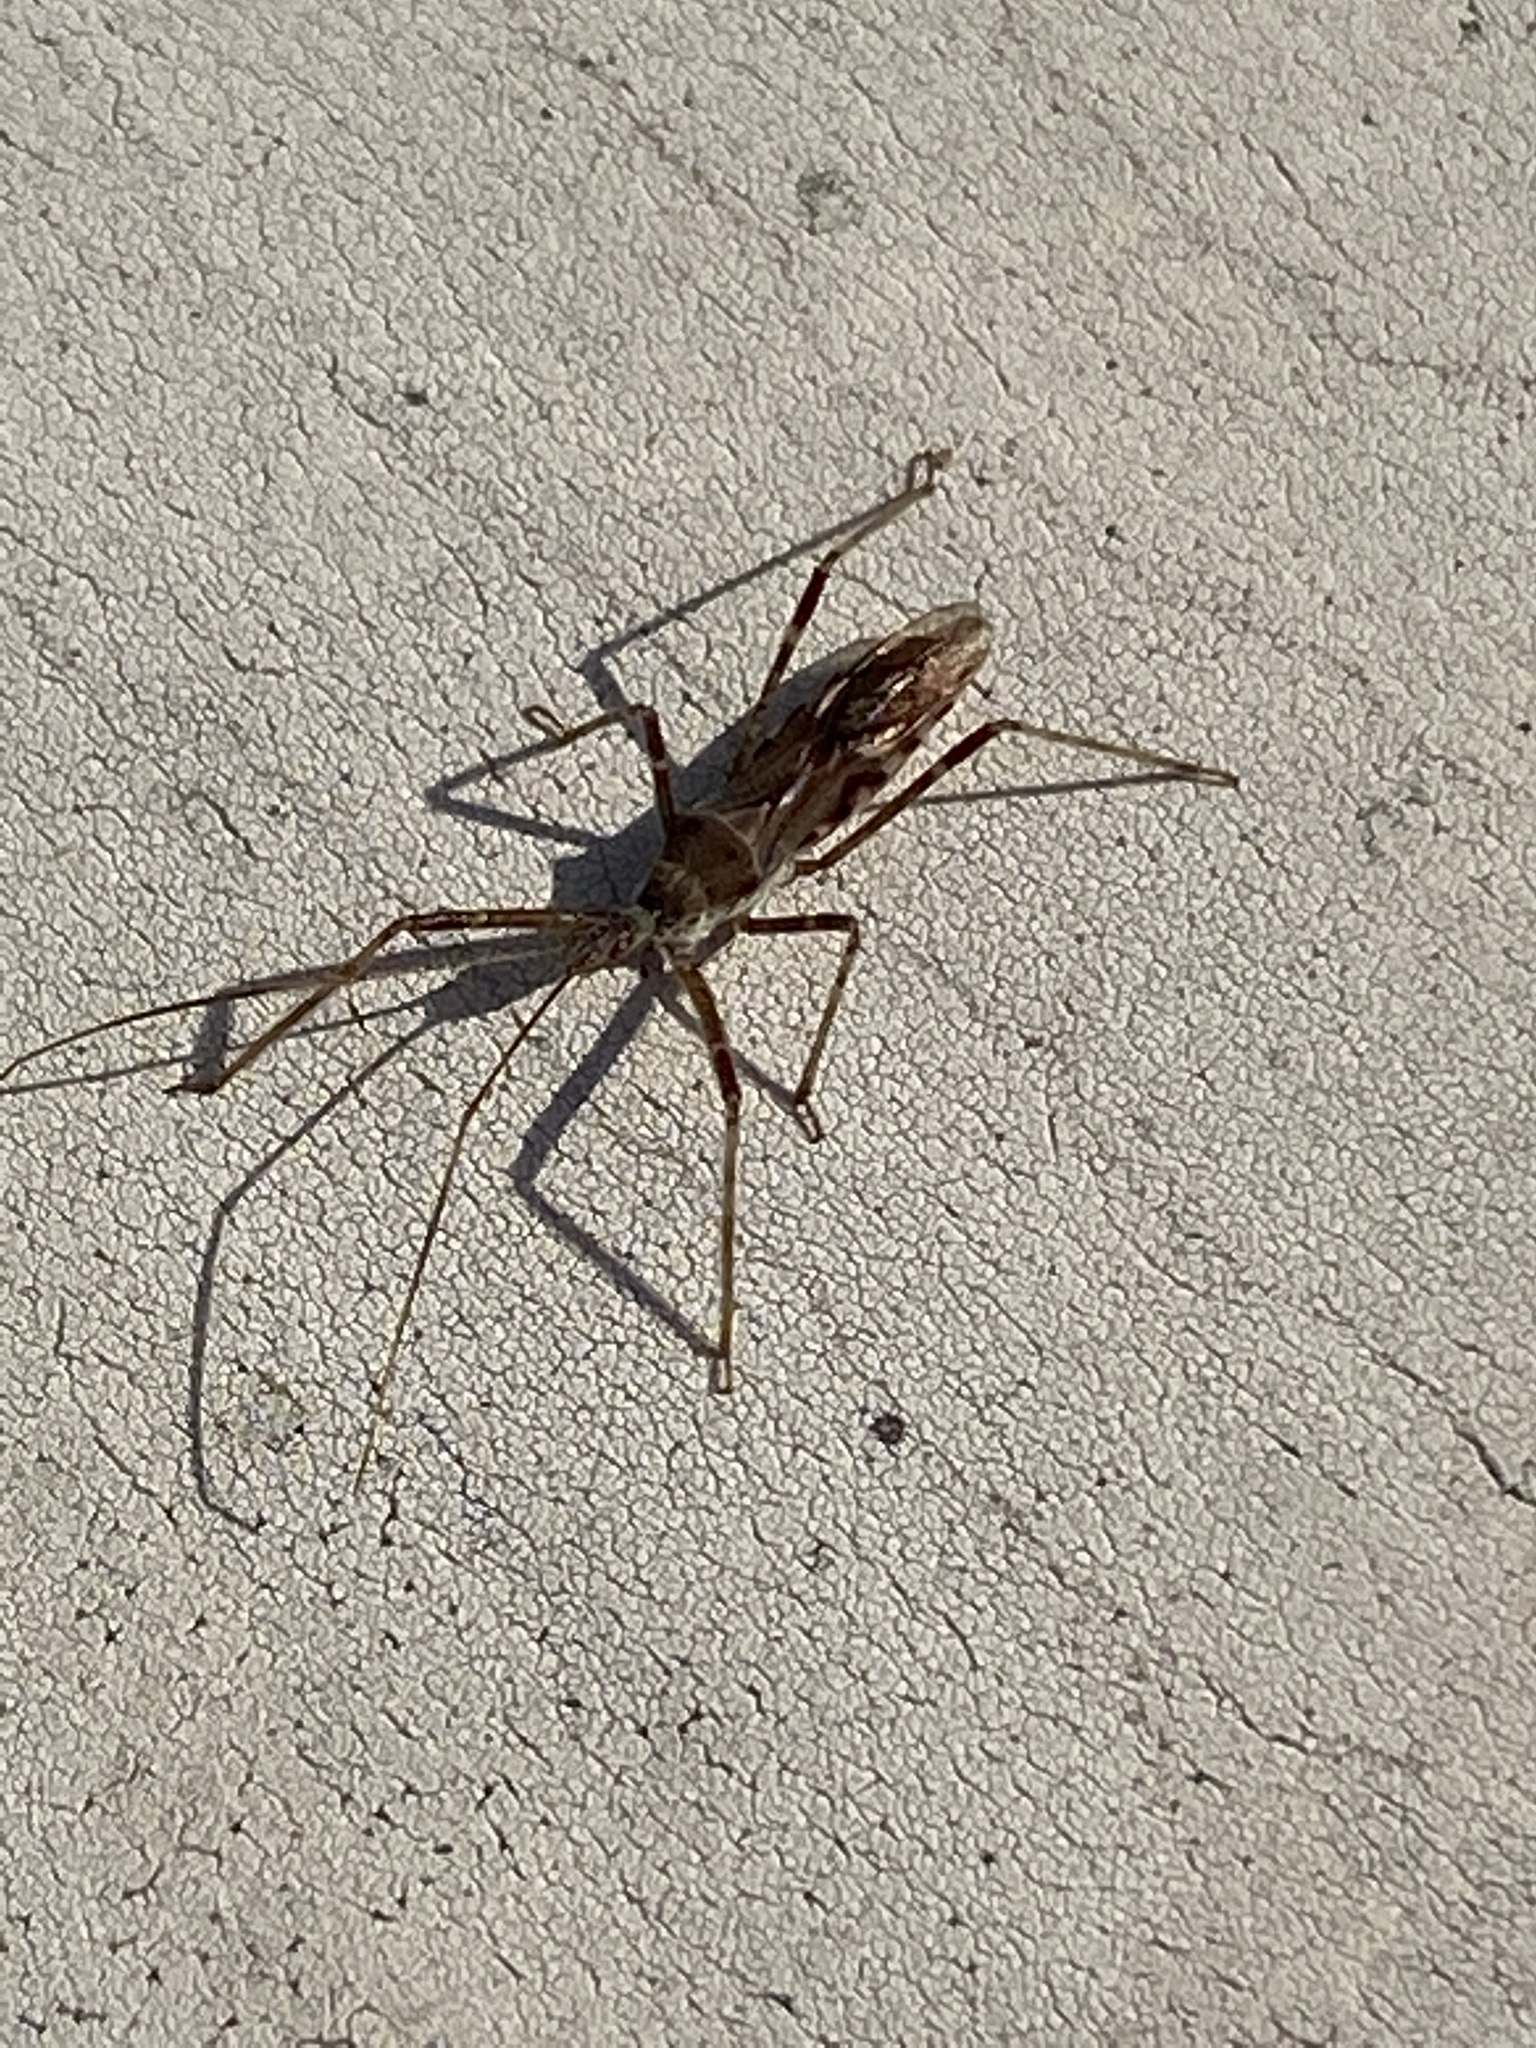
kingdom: Animalia
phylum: Arthropoda
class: Insecta
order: Hemiptera
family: Reduviidae
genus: Zelus
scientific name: Zelus tetracanthus
